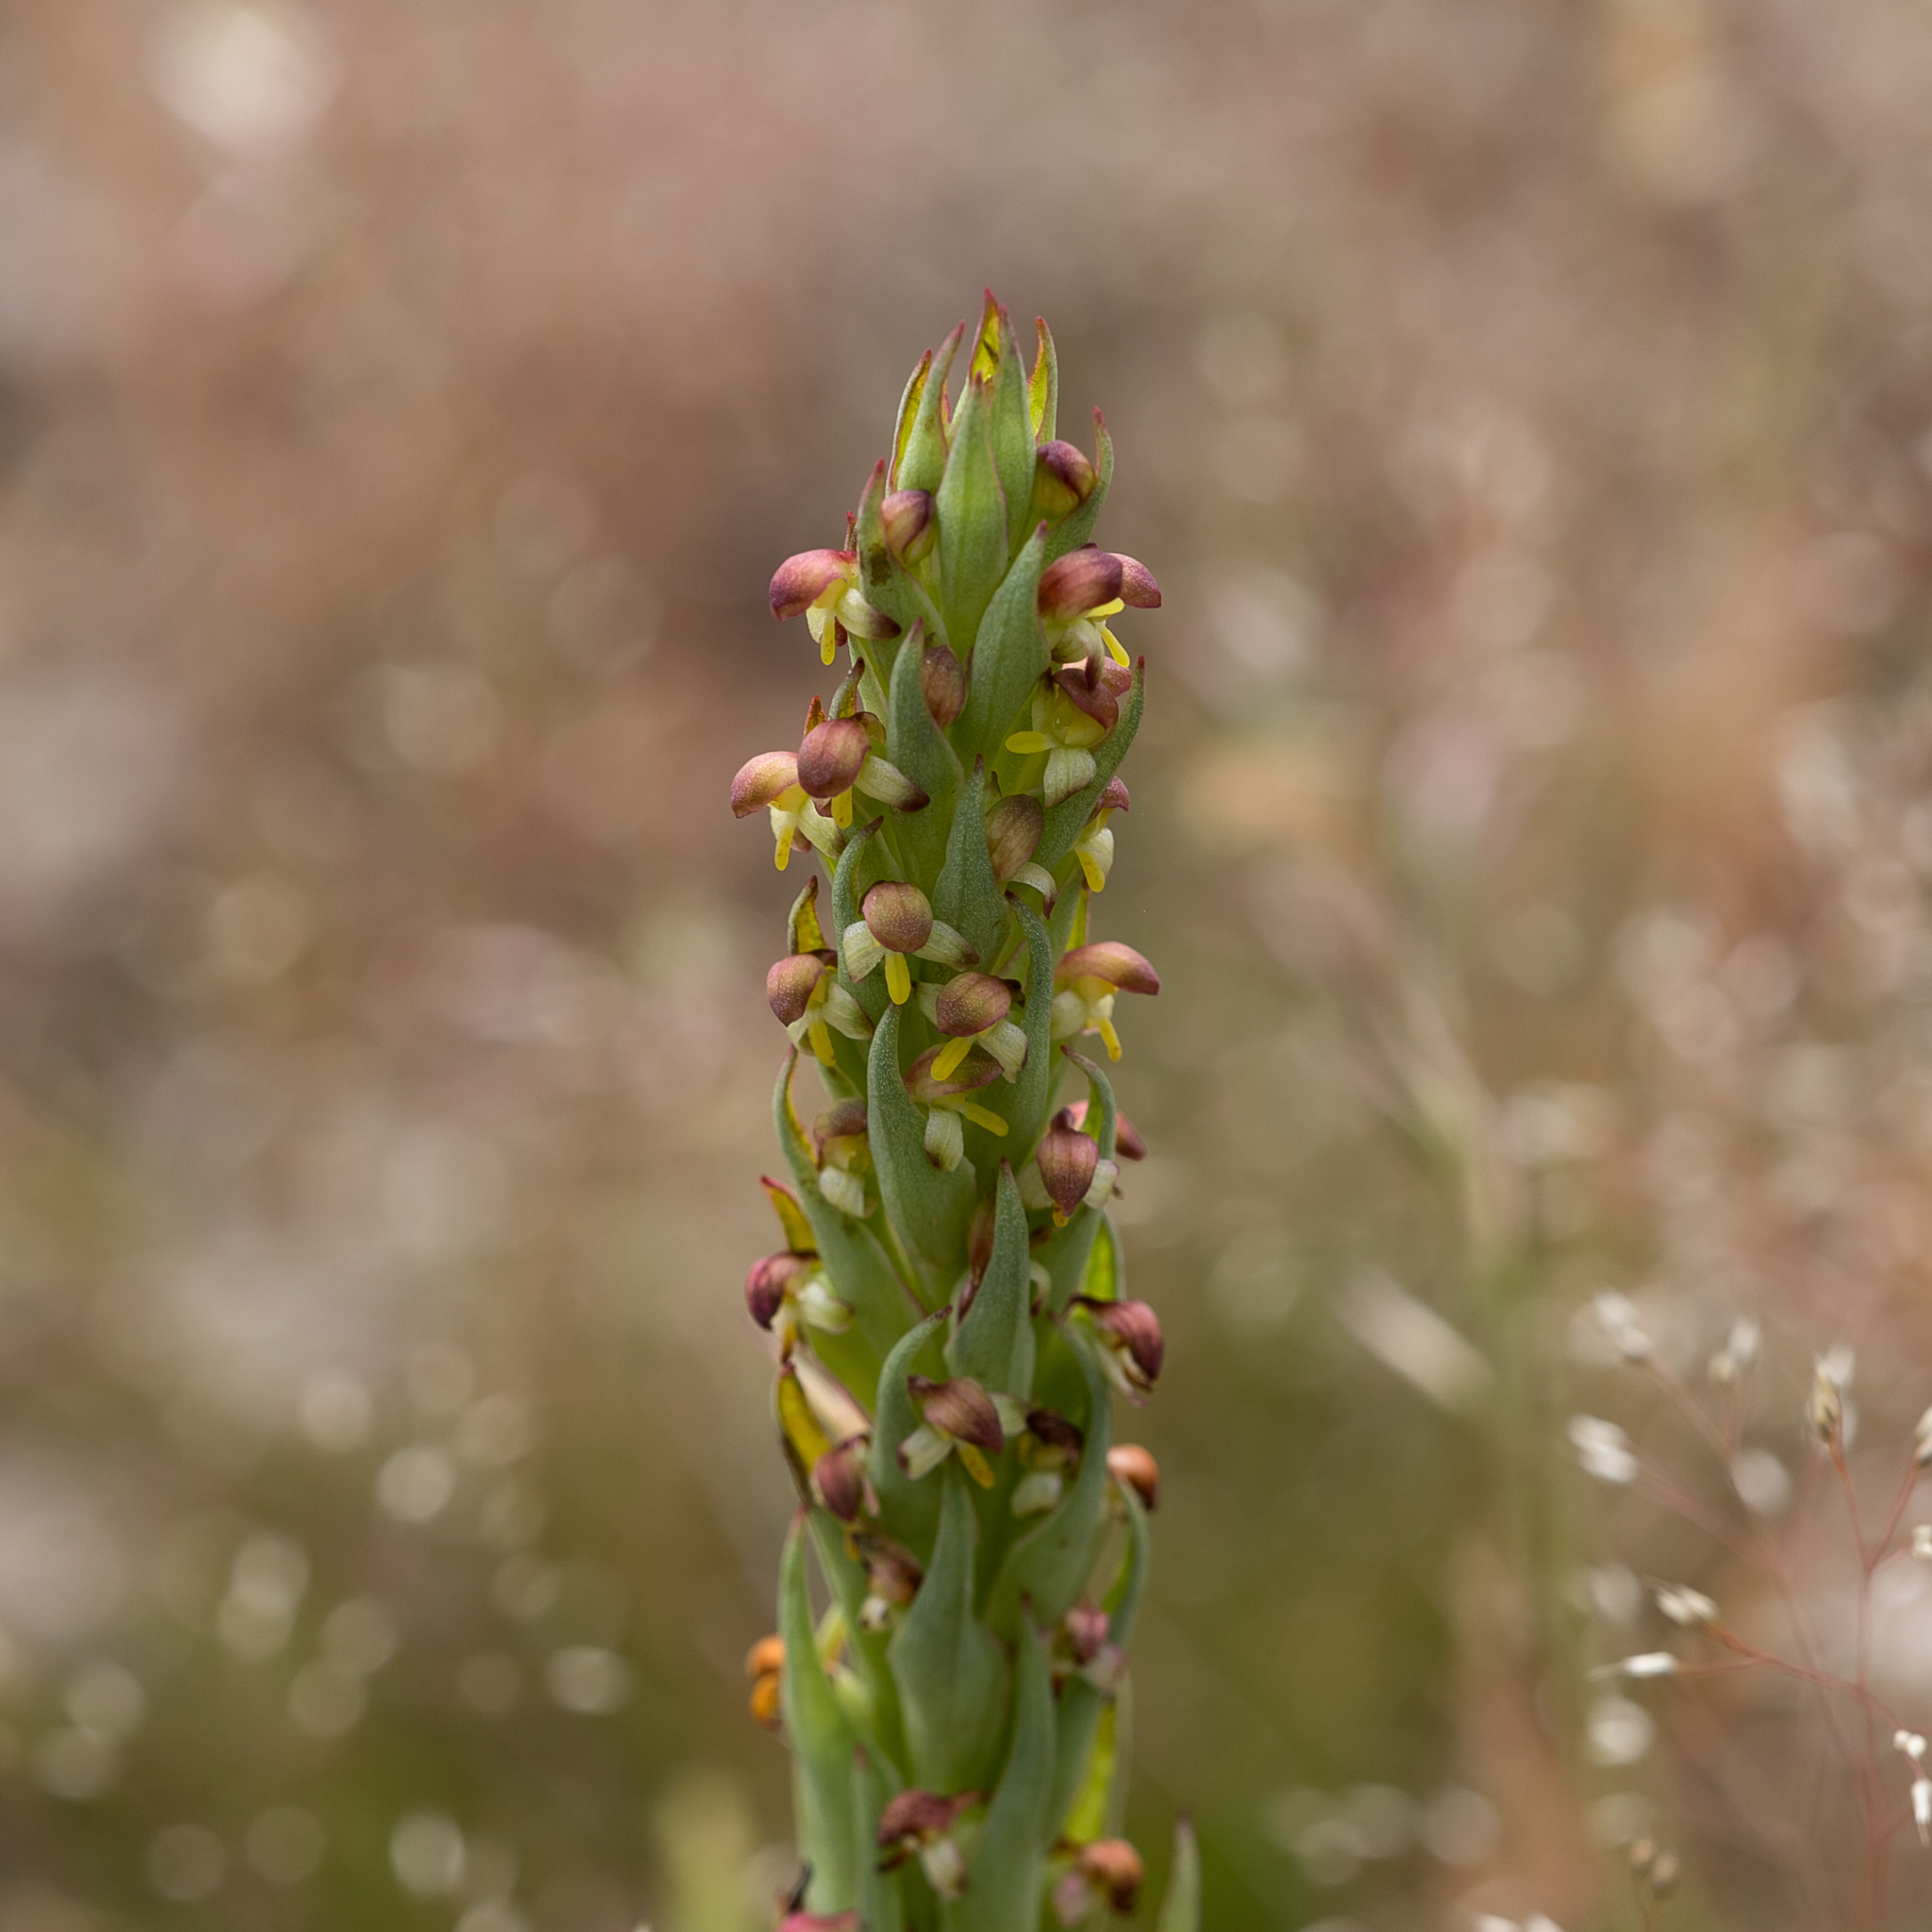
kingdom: Plantae
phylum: Tracheophyta
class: Liliopsida
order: Asparagales
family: Orchidaceae
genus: Disa
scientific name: Disa bracteata
